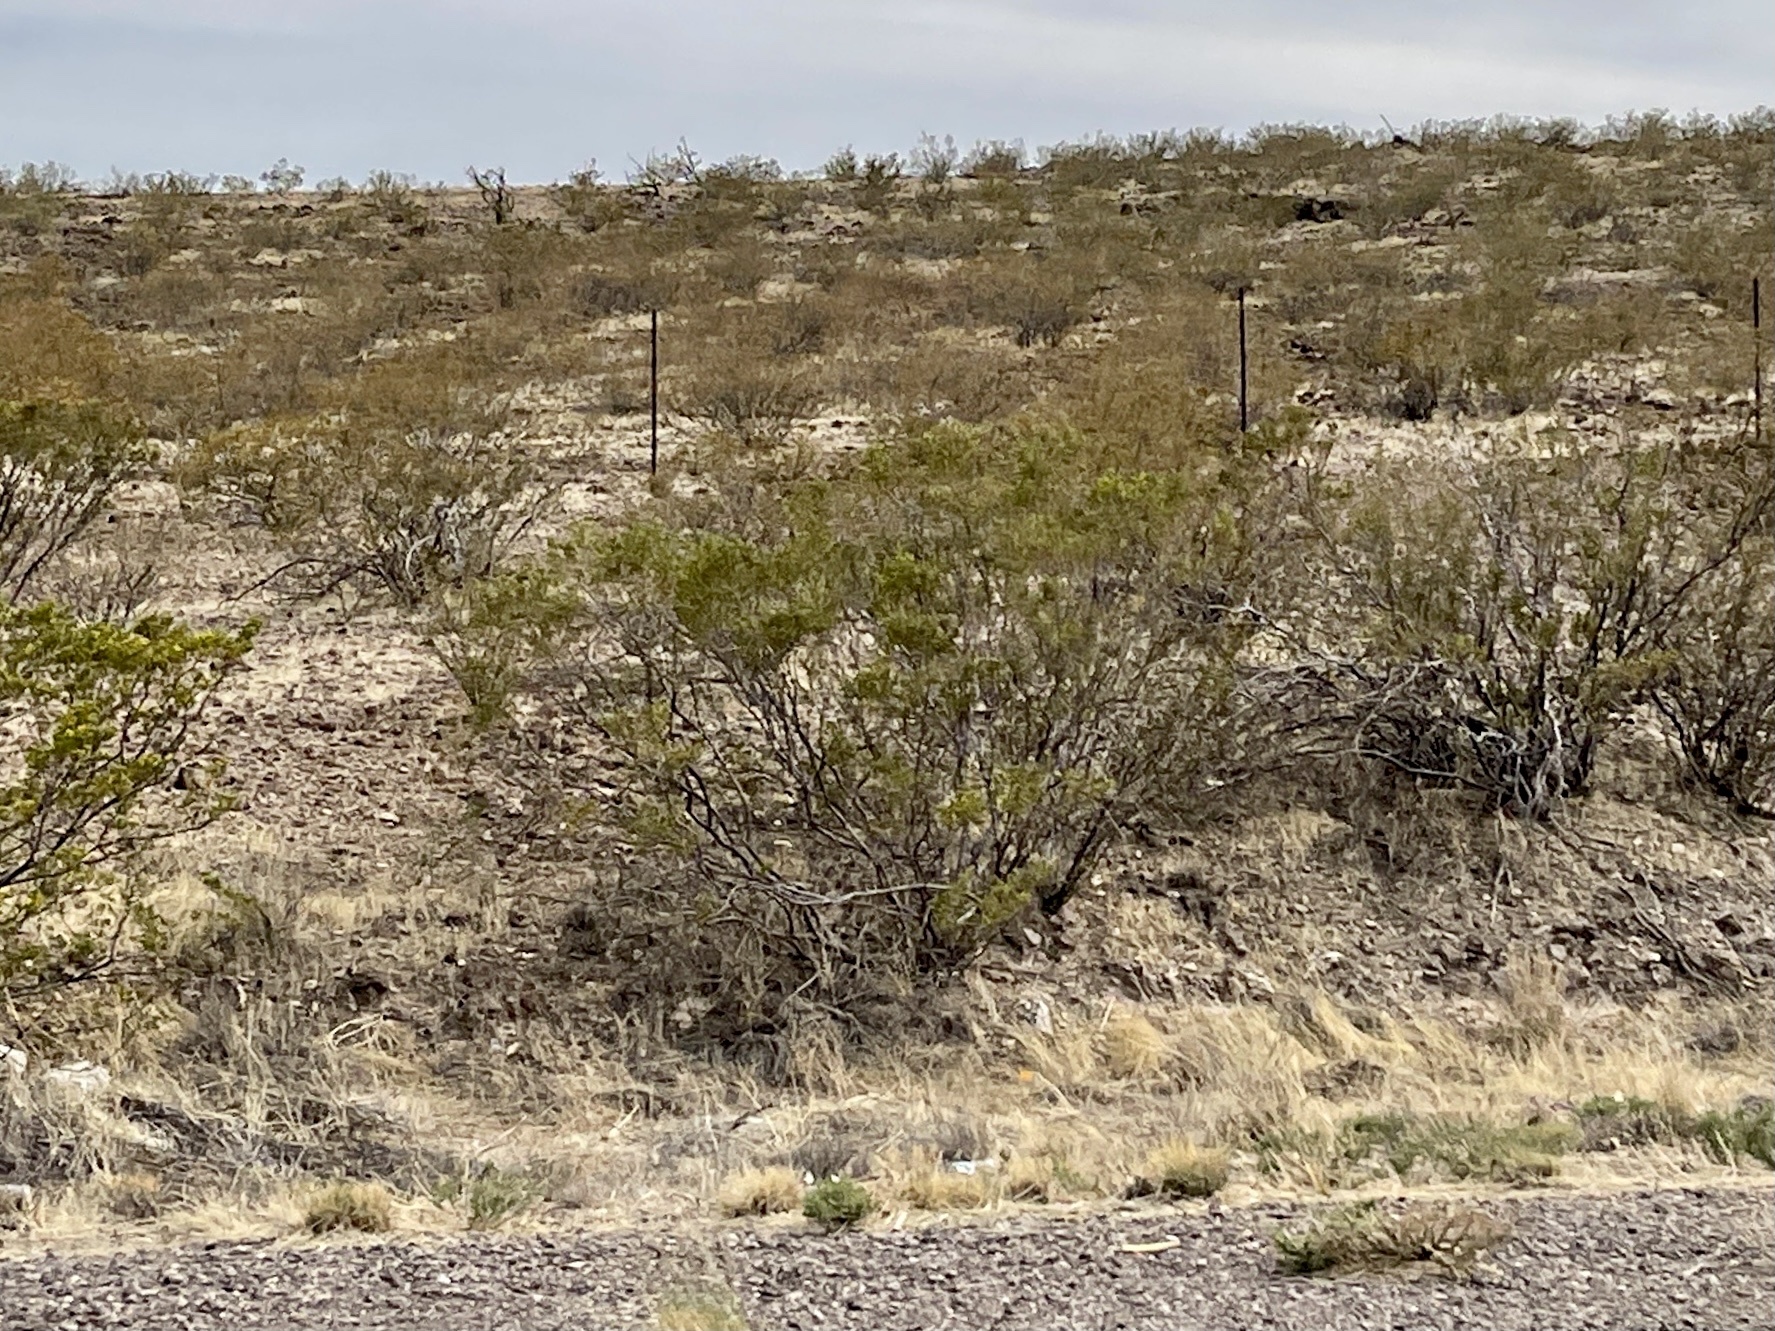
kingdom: Plantae
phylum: Tracheophyta
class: Magnoliopsida
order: Zygophyllales
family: Zygophyllaceae
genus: Larrea
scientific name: Larrea tridentata
